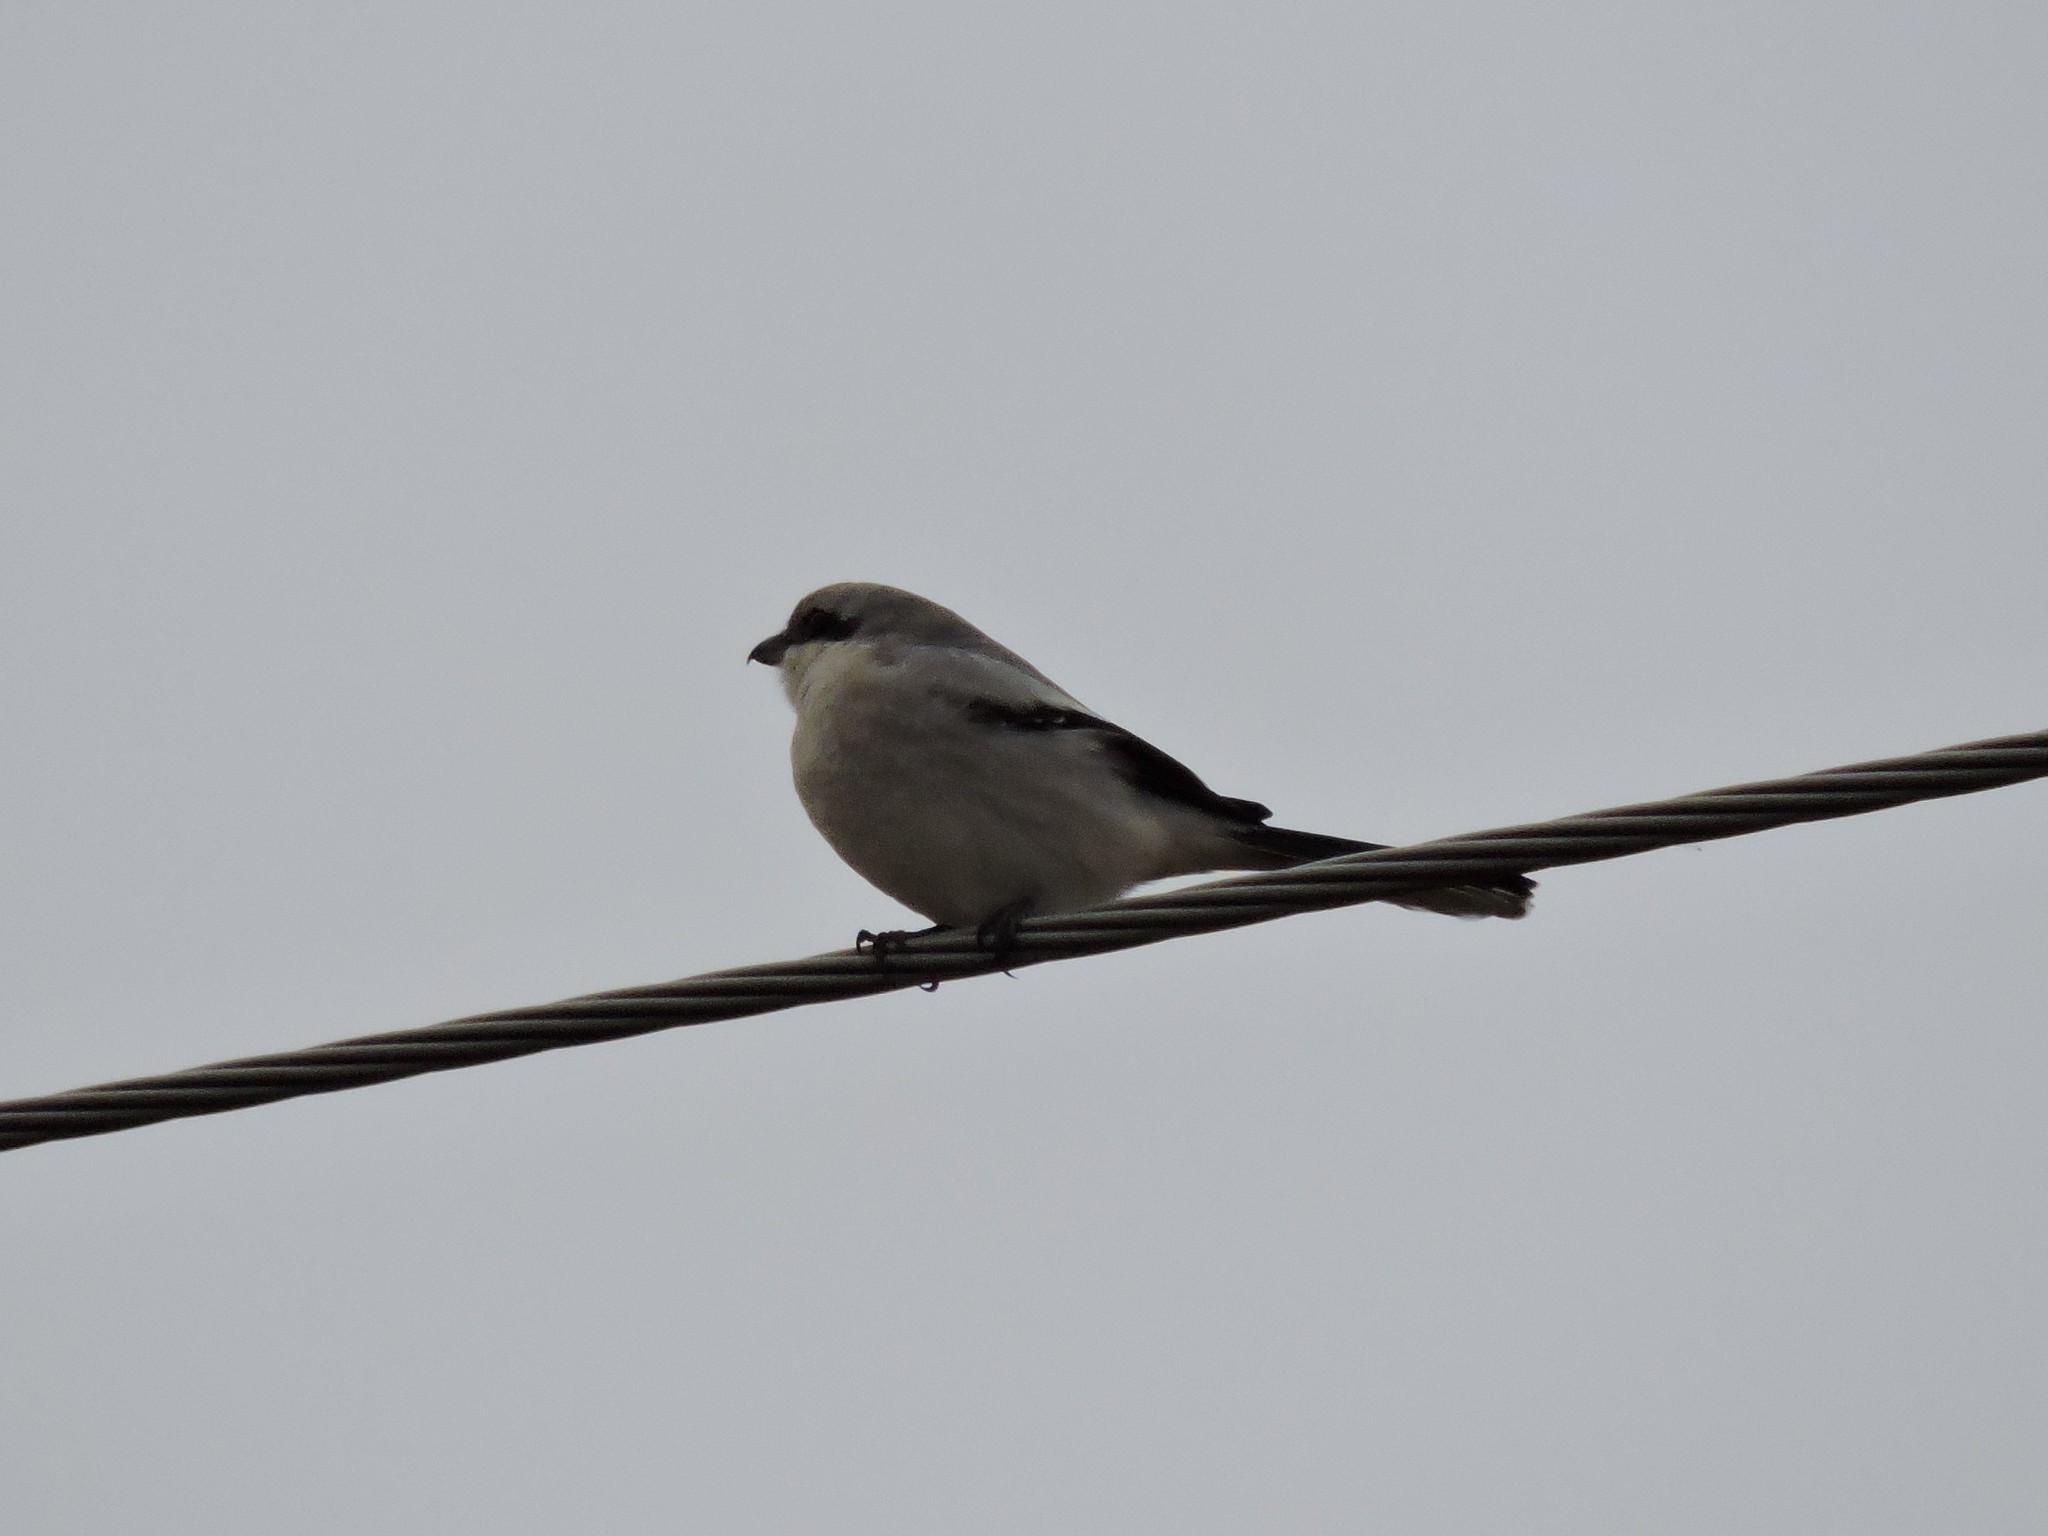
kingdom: Animalia
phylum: Chordata
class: Aves
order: Passeriformes
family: Laniidae
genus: Lanius
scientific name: Lanius excubitor
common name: Great grey shrike
